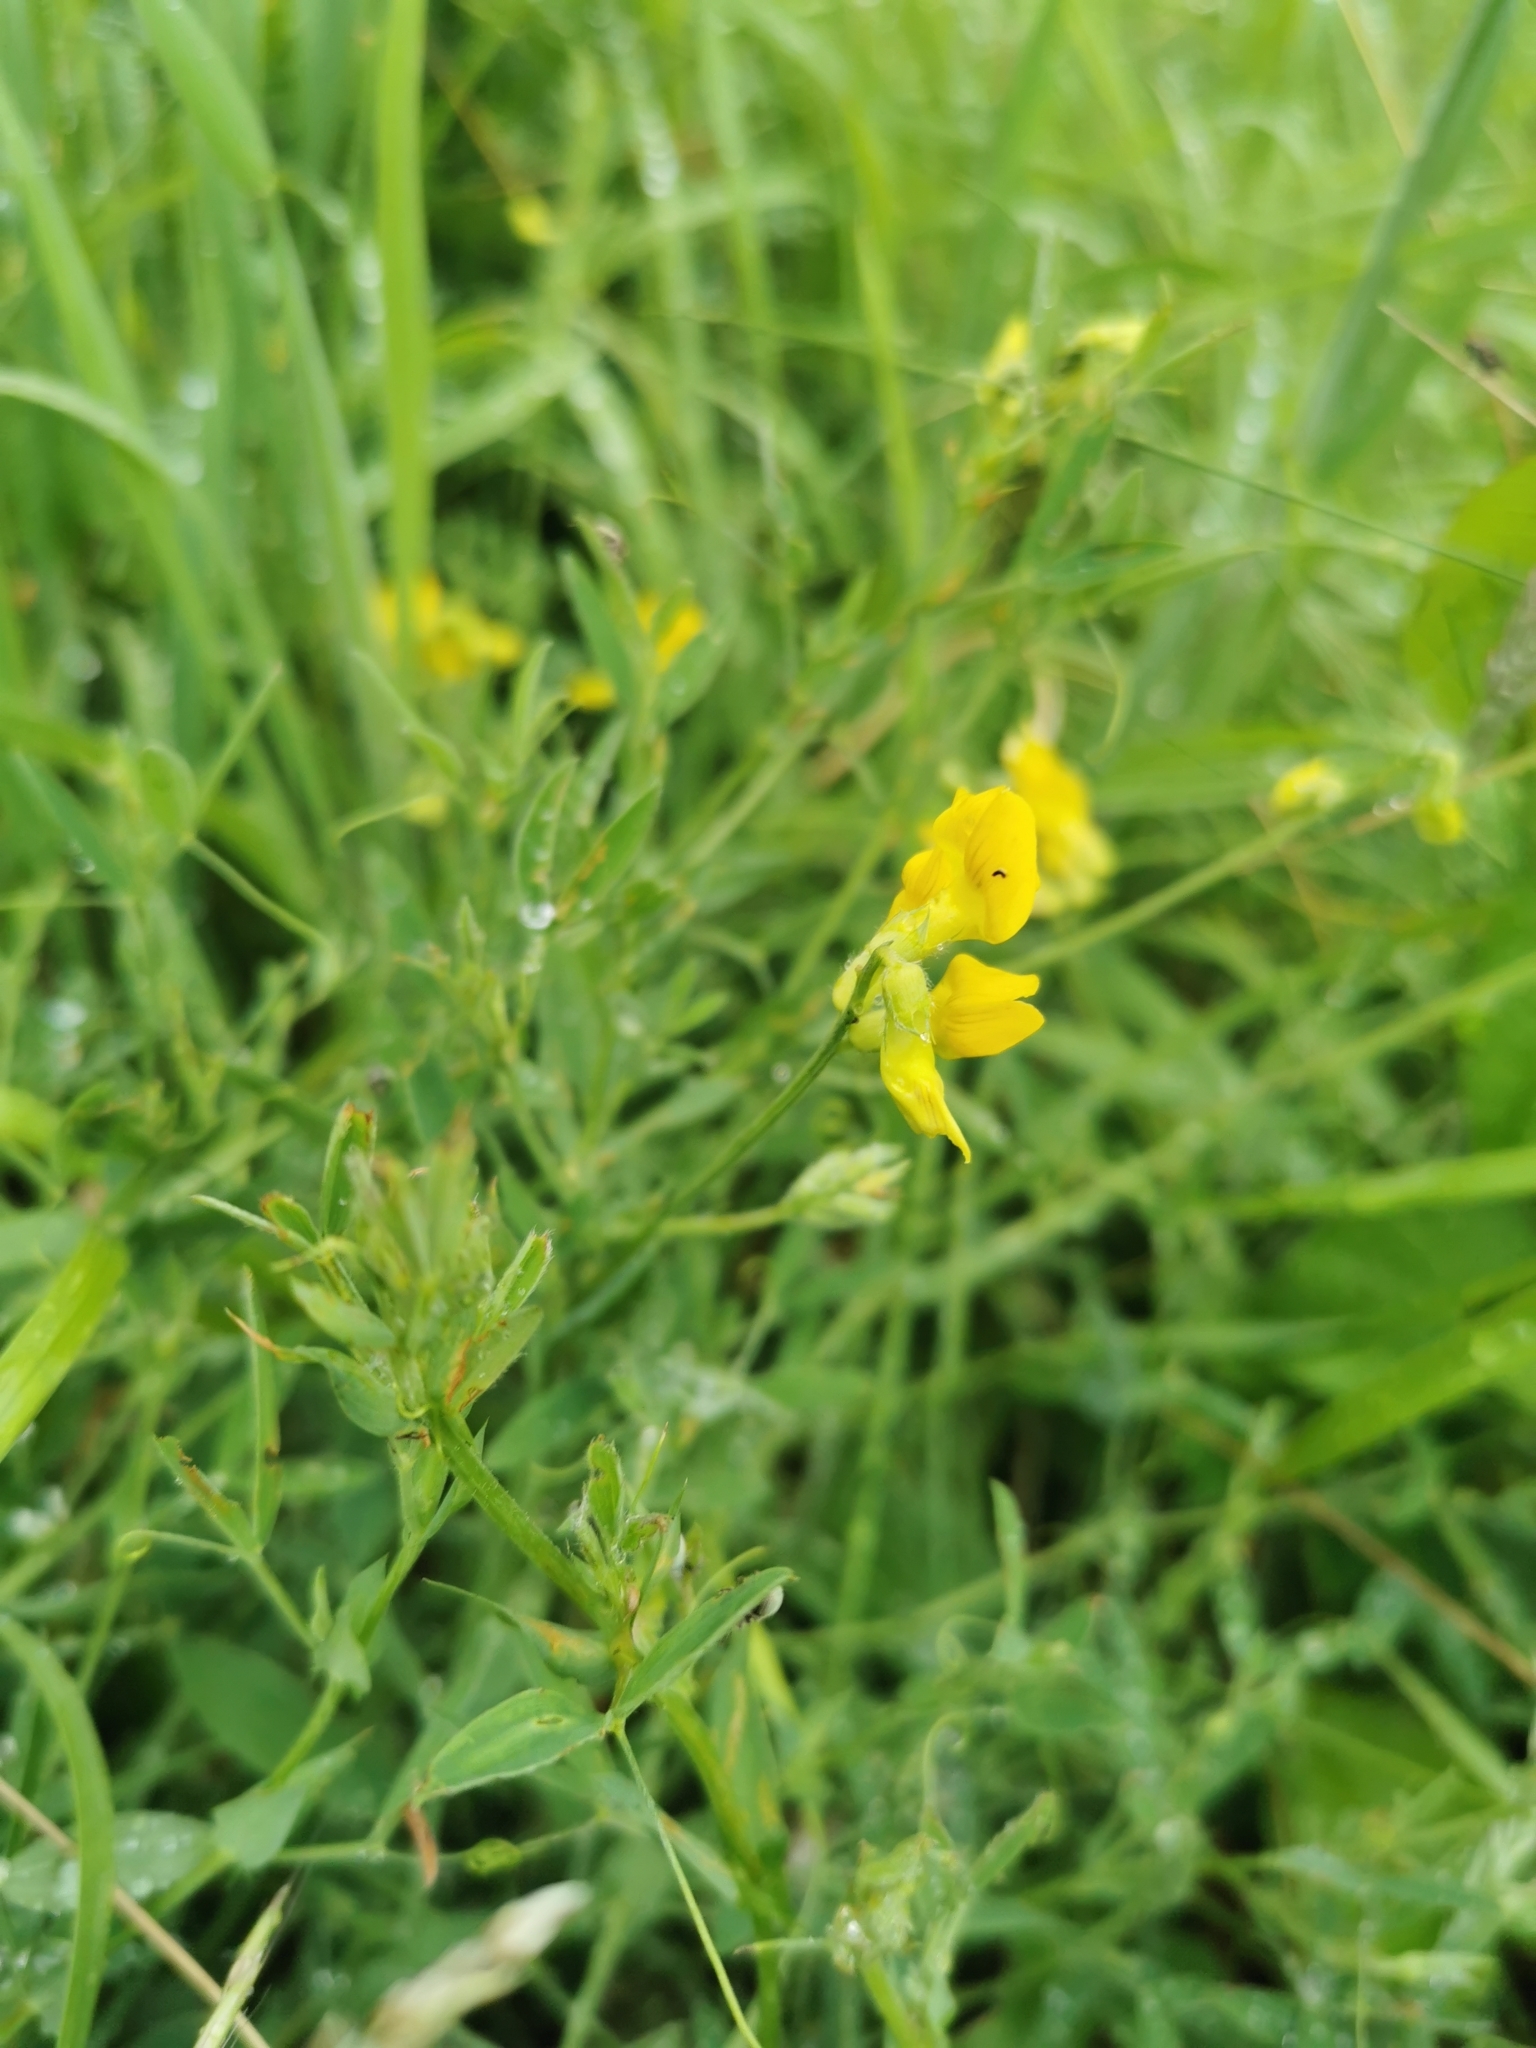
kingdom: Plantae
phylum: Tracheophyta
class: Magnoliopsida
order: Fabales
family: Fabaceae
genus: Lathyrus
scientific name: Lathyrus pratensis
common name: Meadow vetchling
